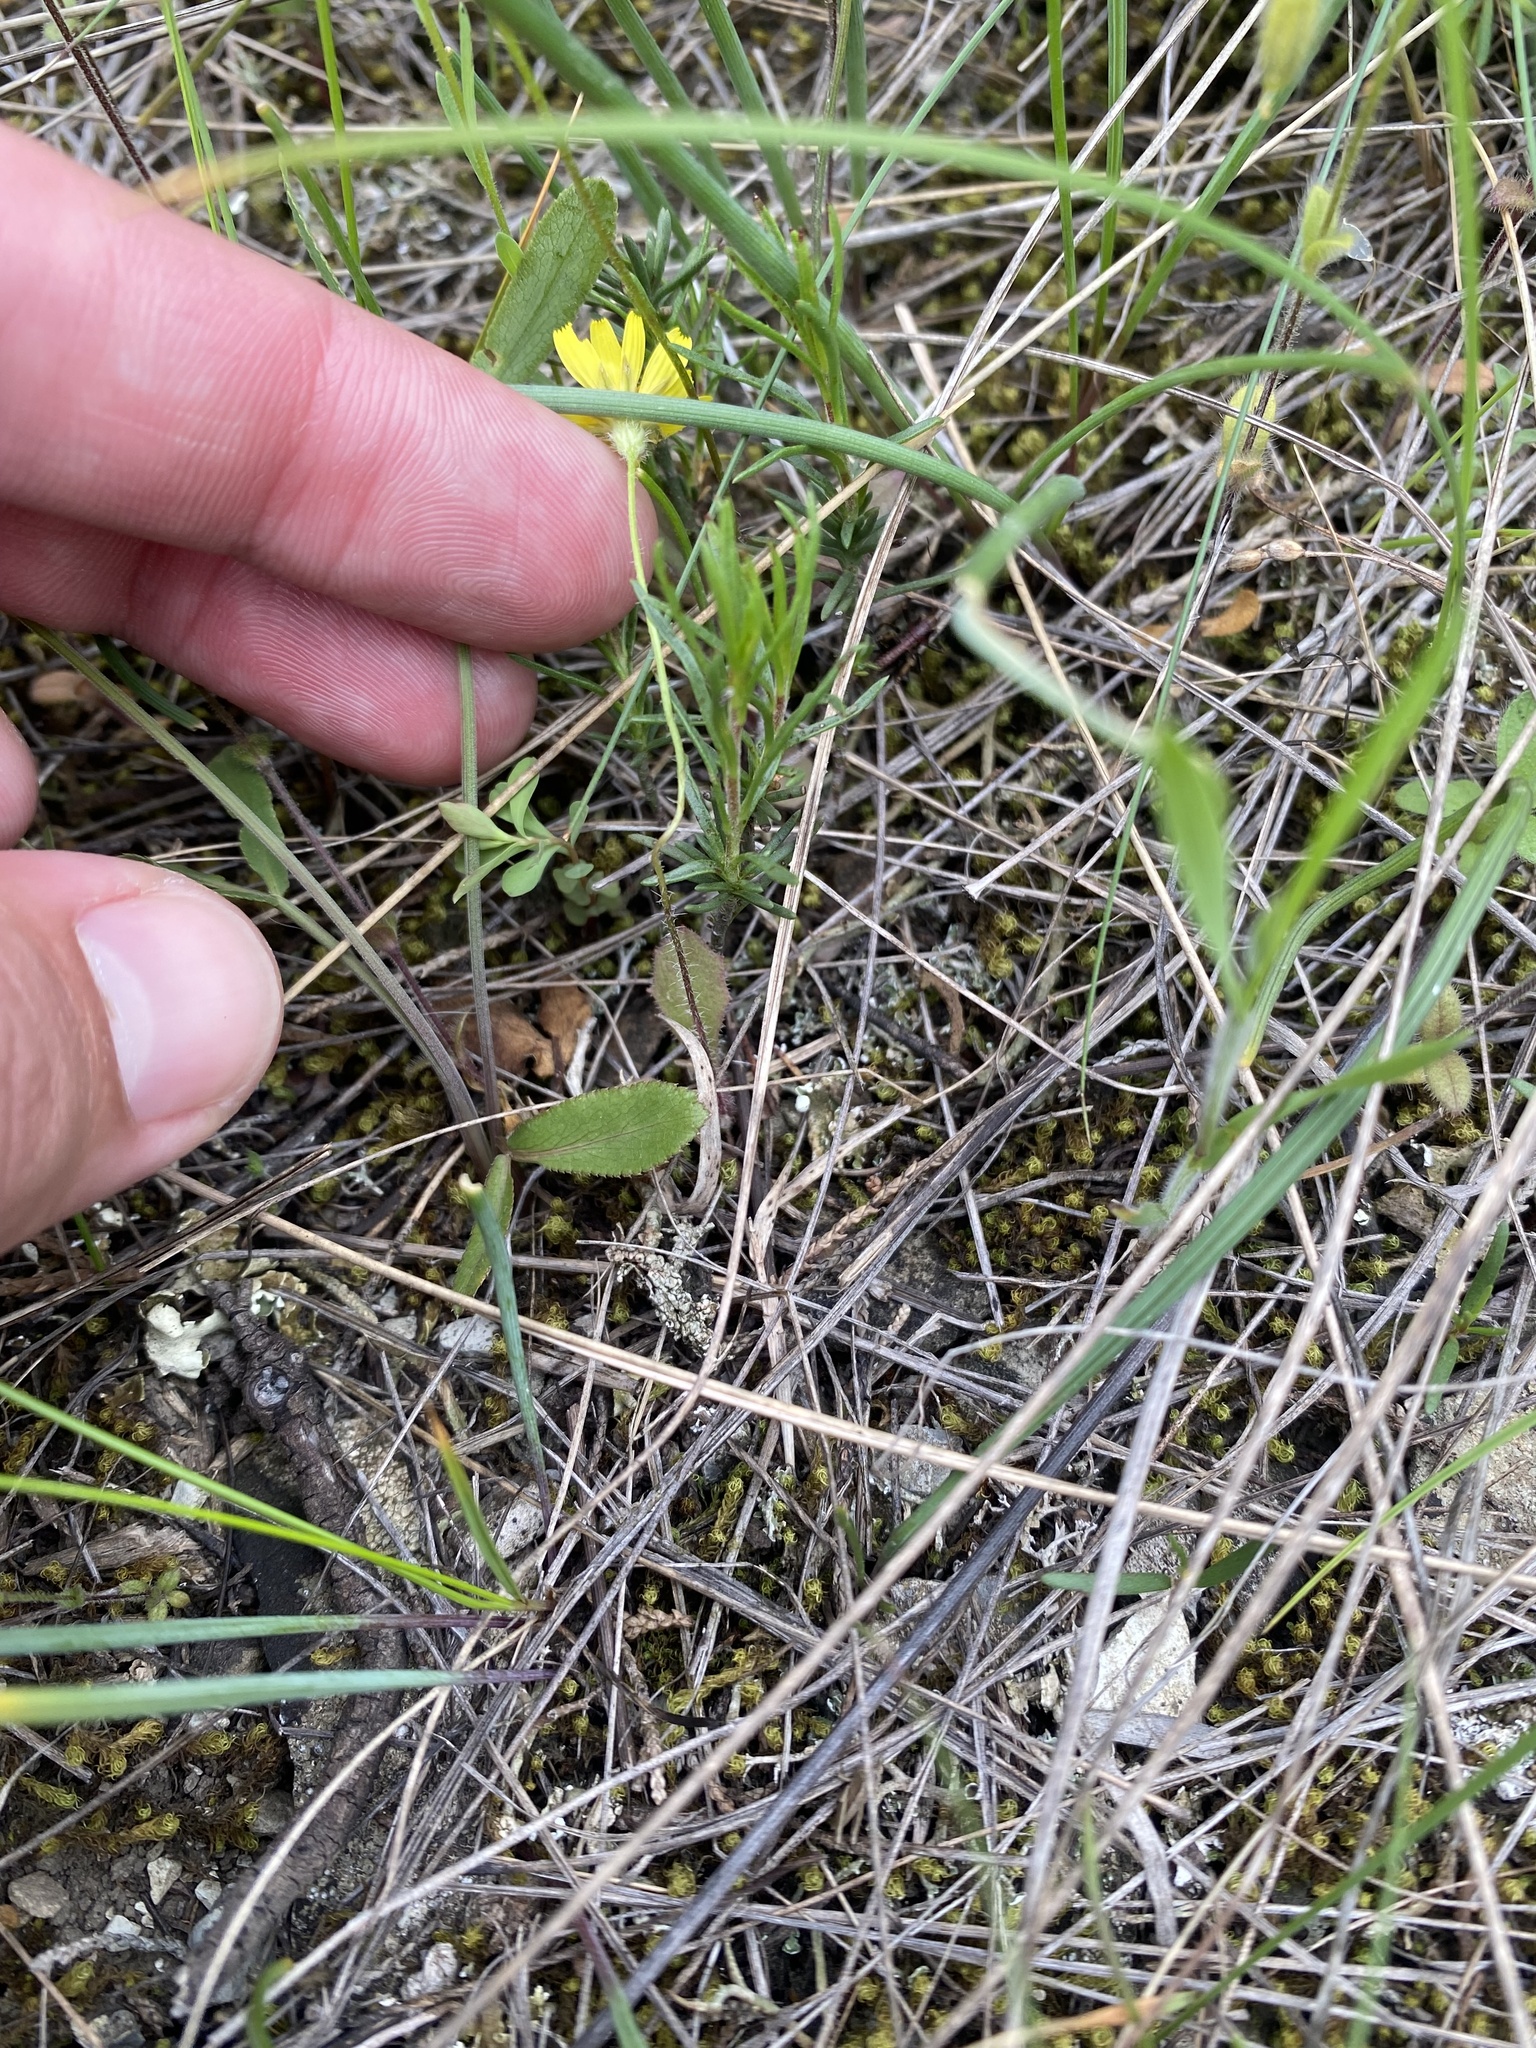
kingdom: Plantae
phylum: Tracheophyta
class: Magnoliopsida
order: Asterales
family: Asteraceae
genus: Crepis
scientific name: Crepis sancta
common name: Hawk's-beard
